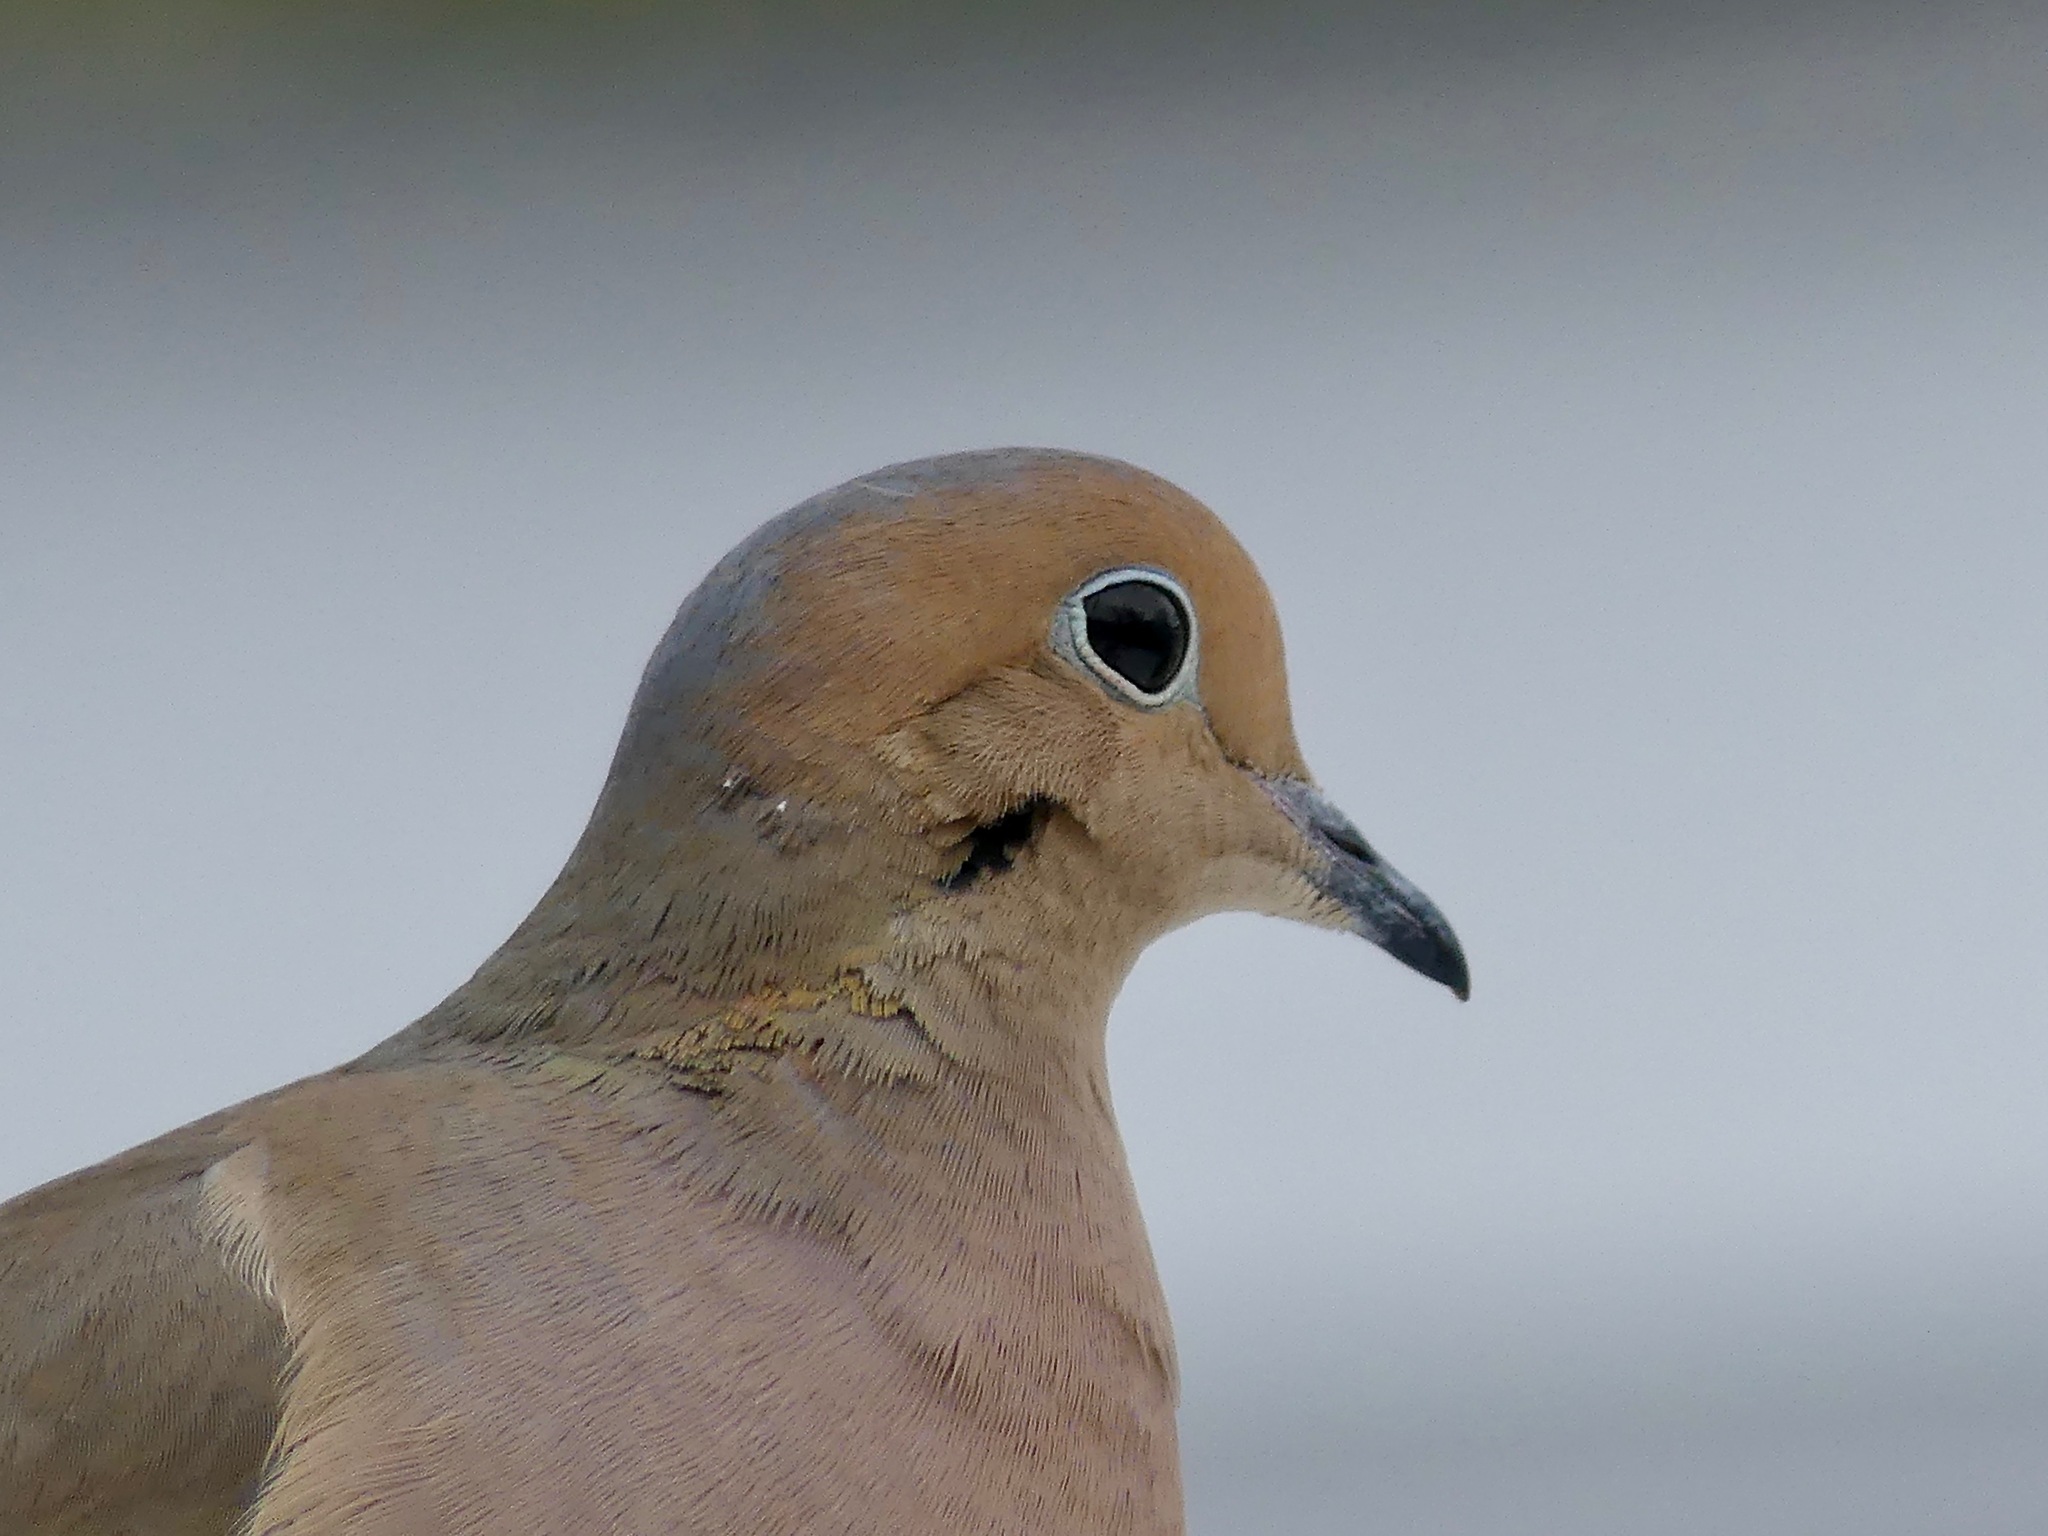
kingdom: Animalia
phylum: Chordata
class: Aves
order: Columbiformes
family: Columbidae
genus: Zenaida
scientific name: Zenaida macroura
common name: Mourning dove
